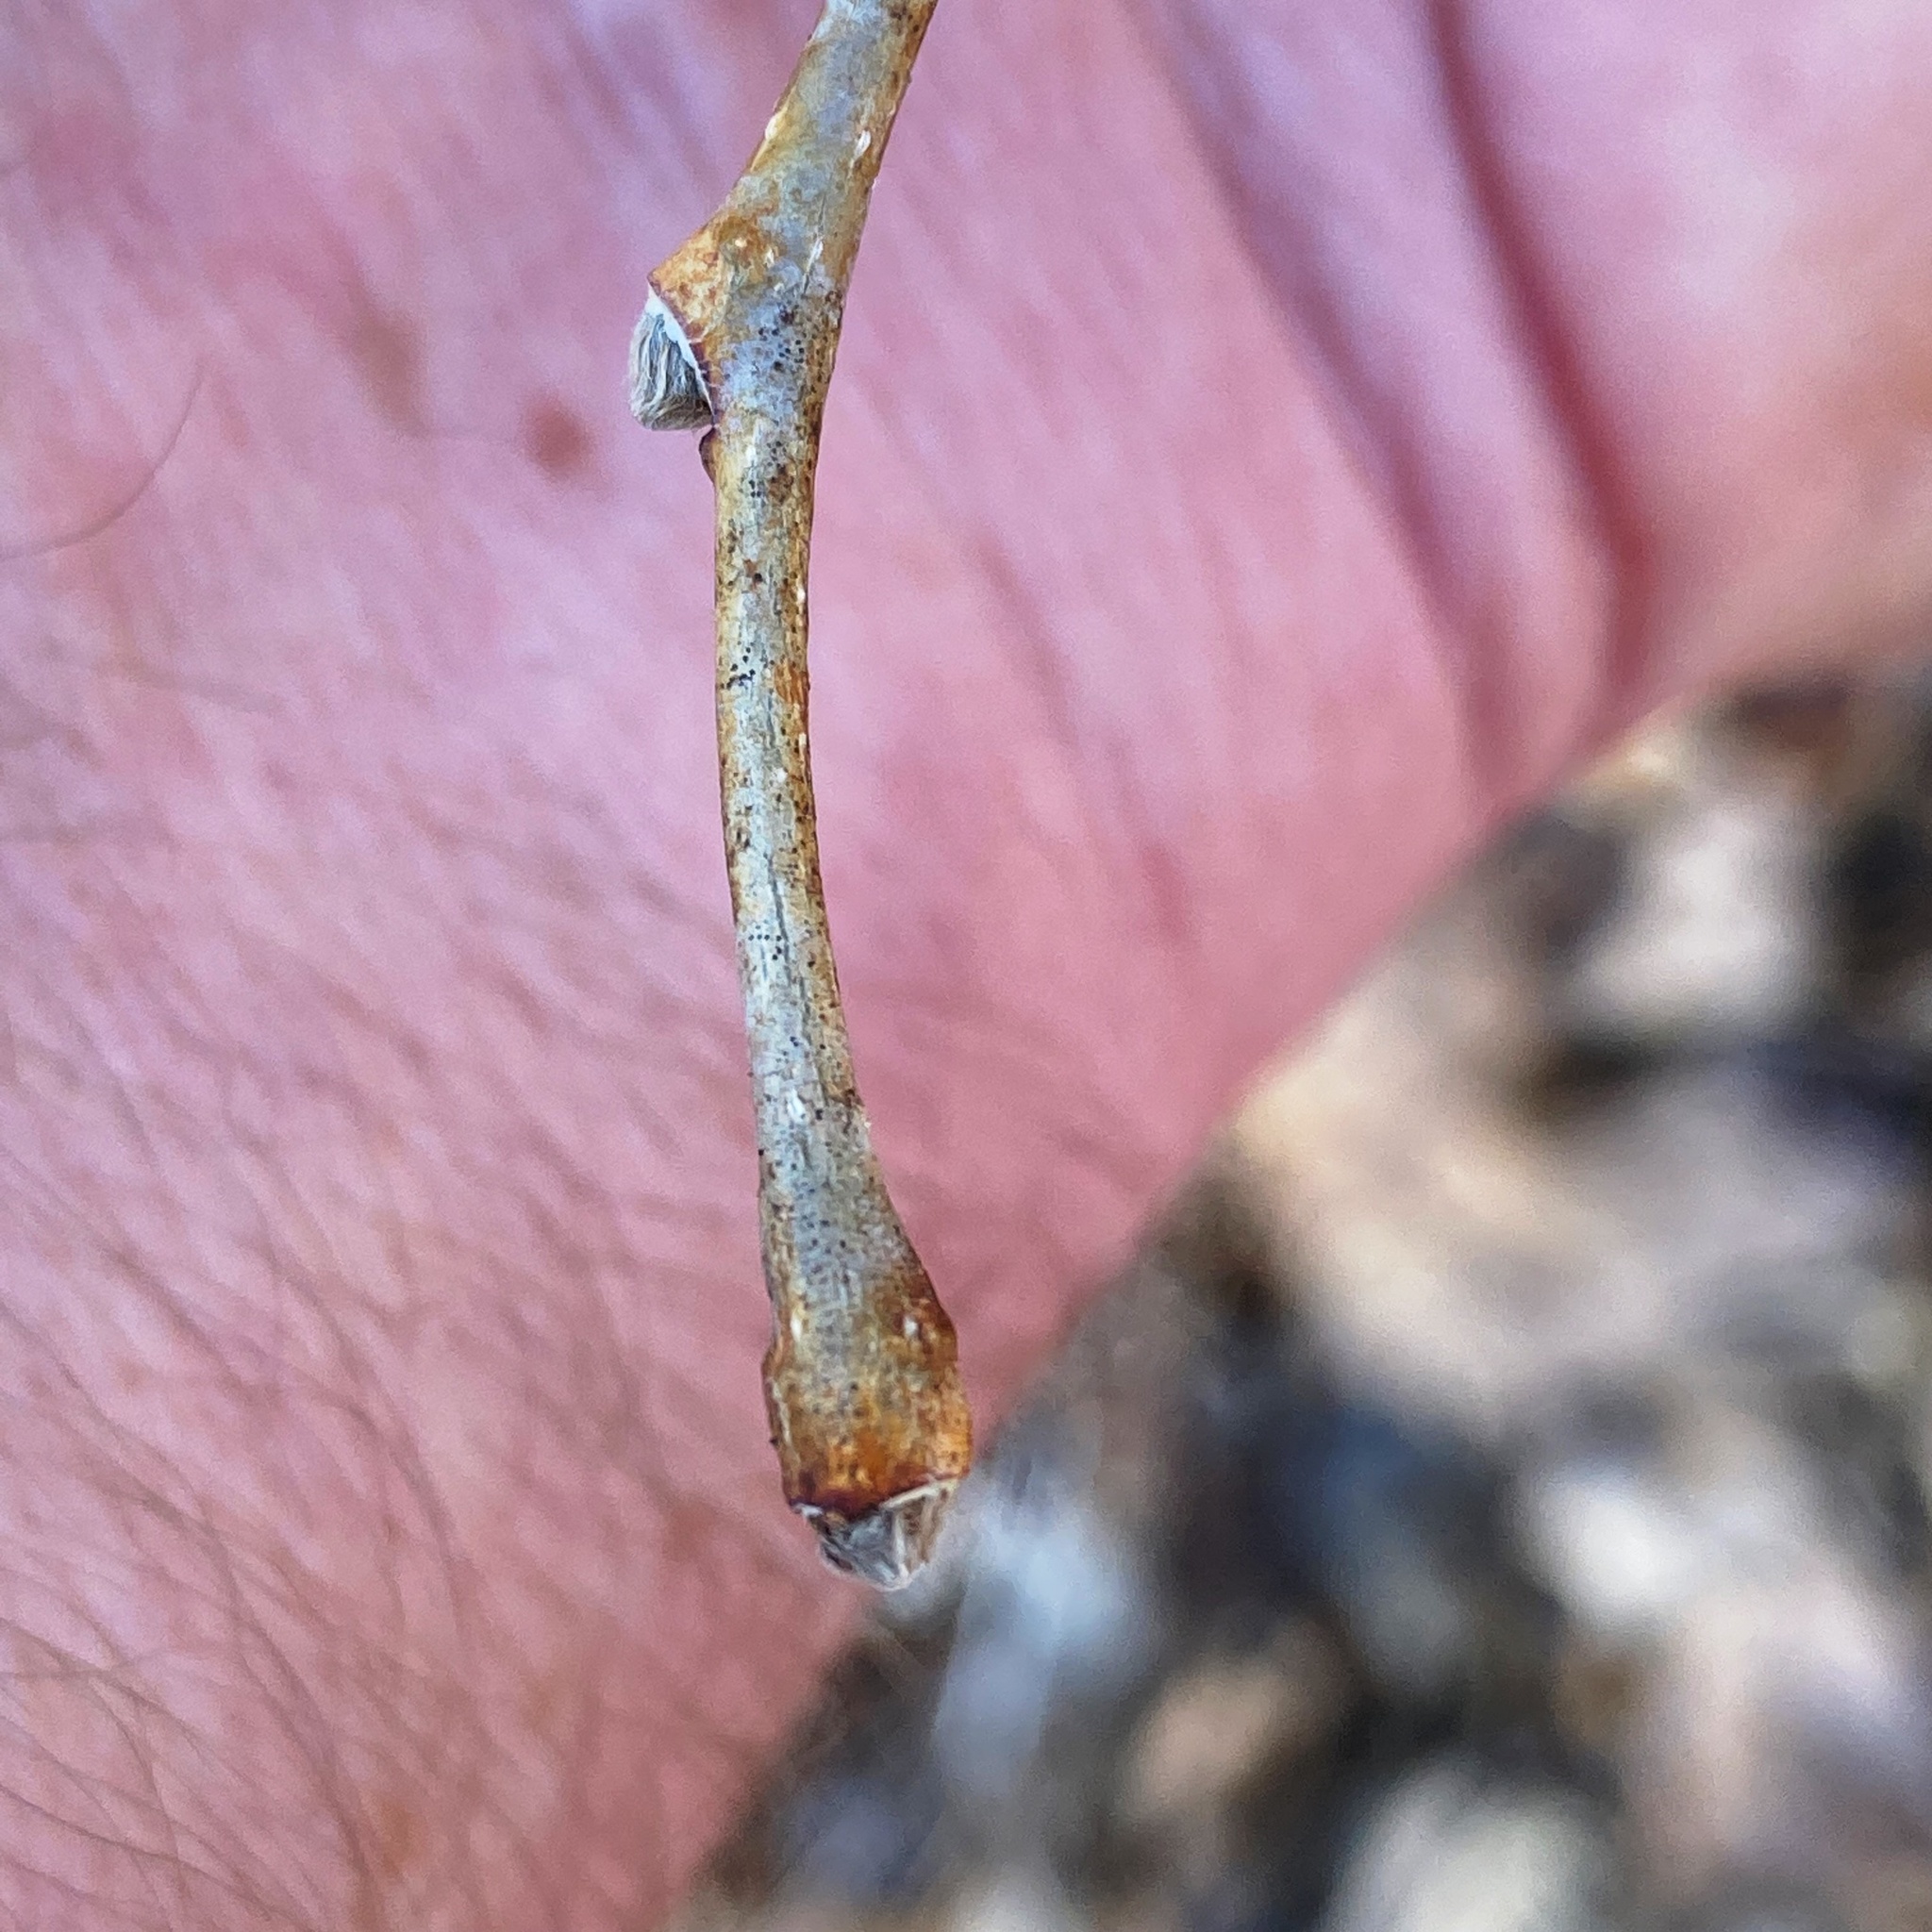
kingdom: Plantae
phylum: Tracheophyta
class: Magnoliopsida
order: Malvales
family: Thymelaeaceae
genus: Dirca
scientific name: Dirca palustris
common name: Leatherwood
